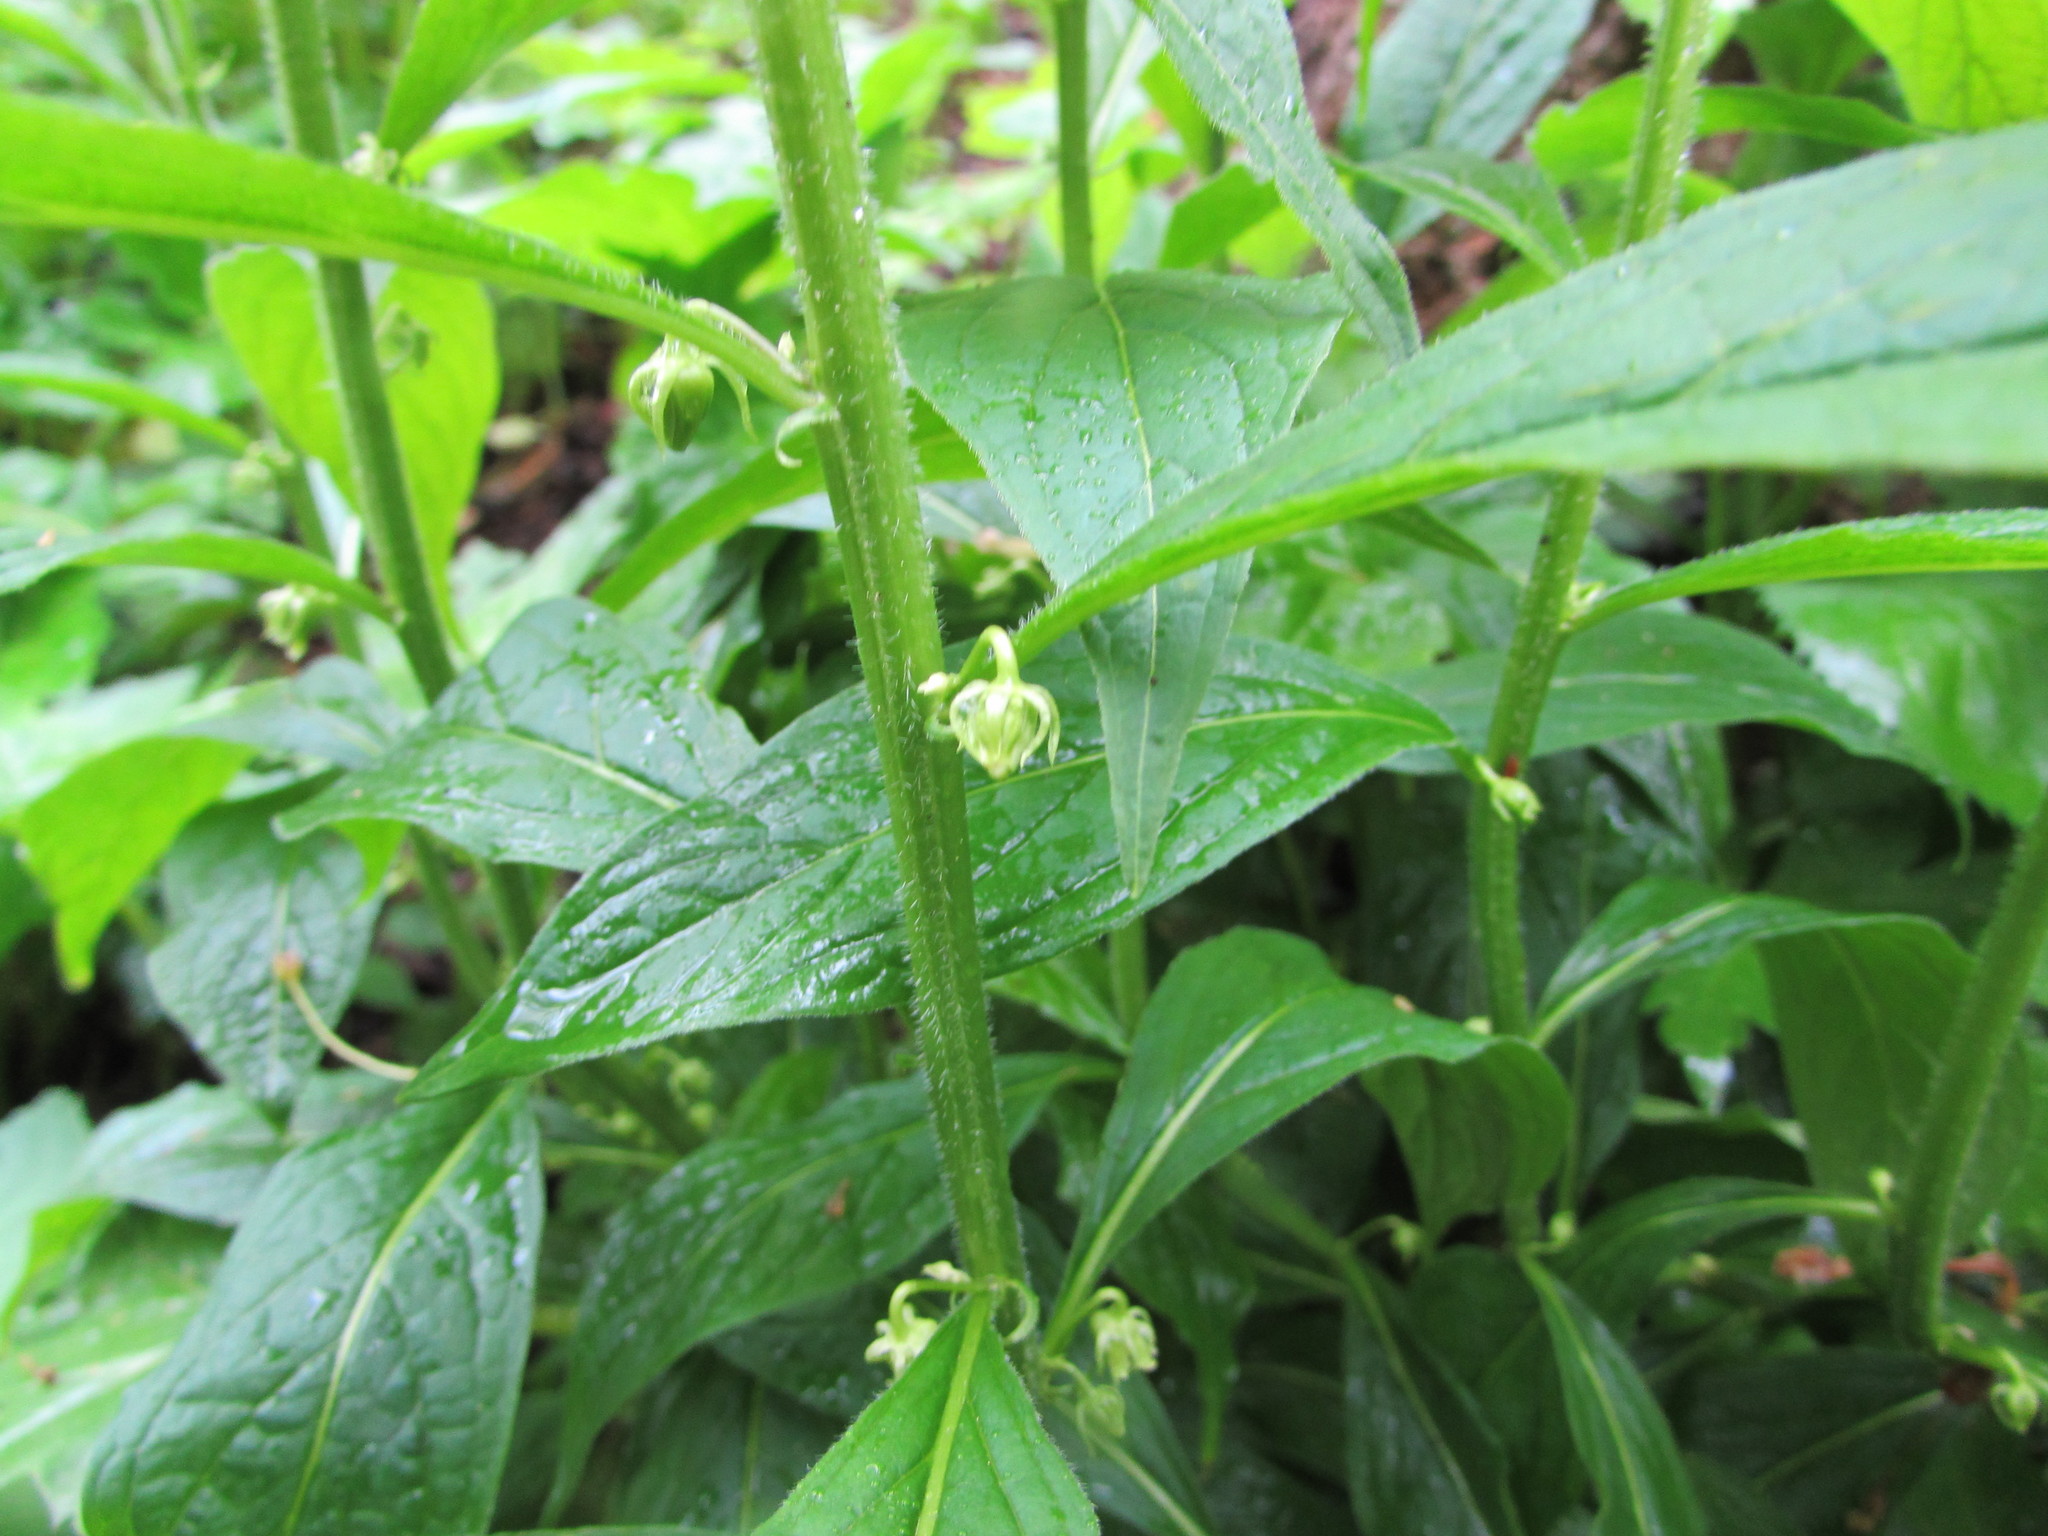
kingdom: Plantae
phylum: Tracheophyta
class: Magnoliopsida
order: Malpighiales
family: Violaceae
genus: Cubelium
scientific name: Cubelium concolor
